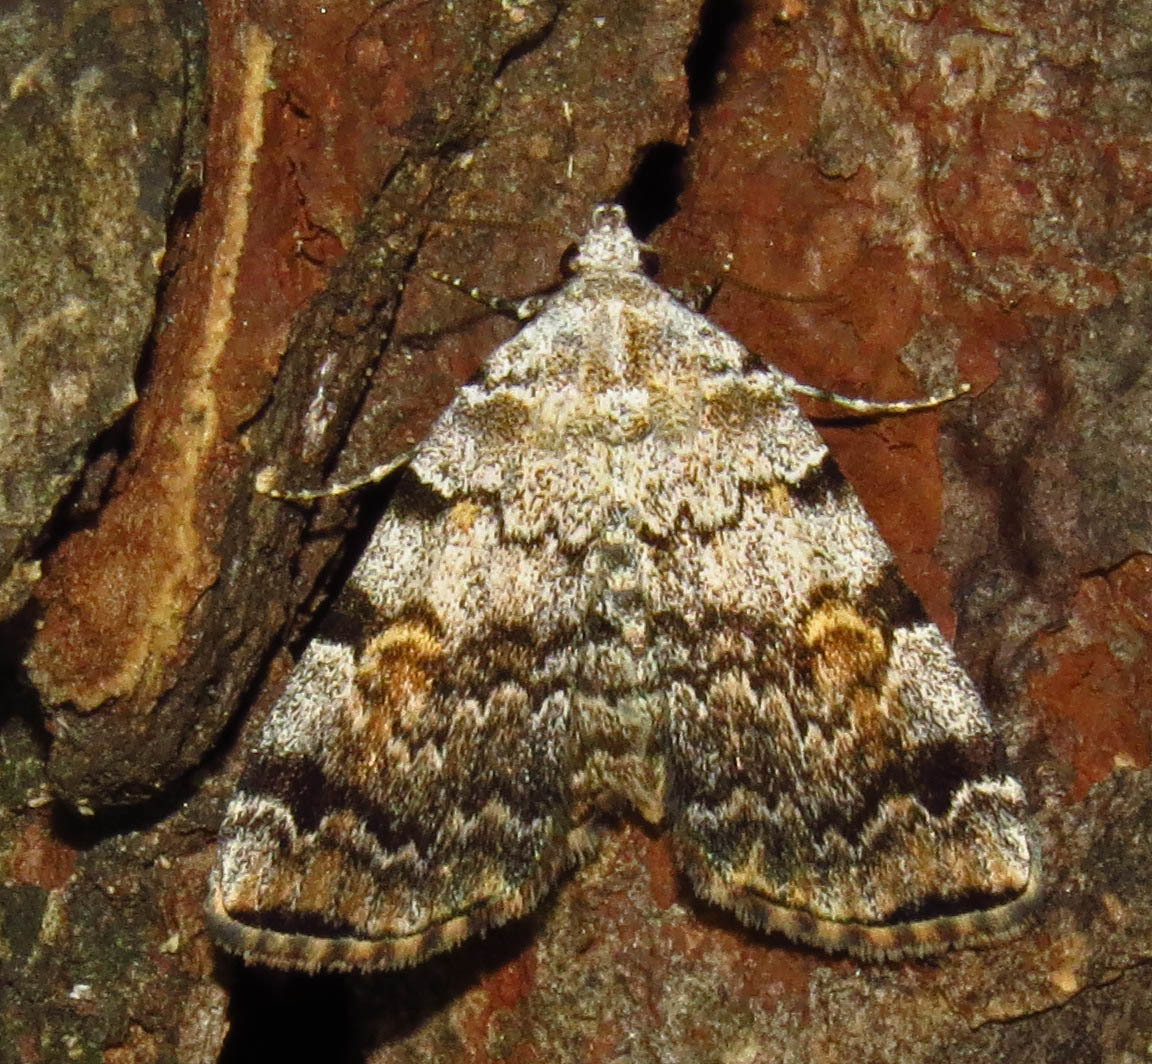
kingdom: Animalia
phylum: Arthropoda
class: Insecta
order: Lepidoptera
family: Erebidae
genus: Idia
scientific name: Idia americalis
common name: American idia moth
